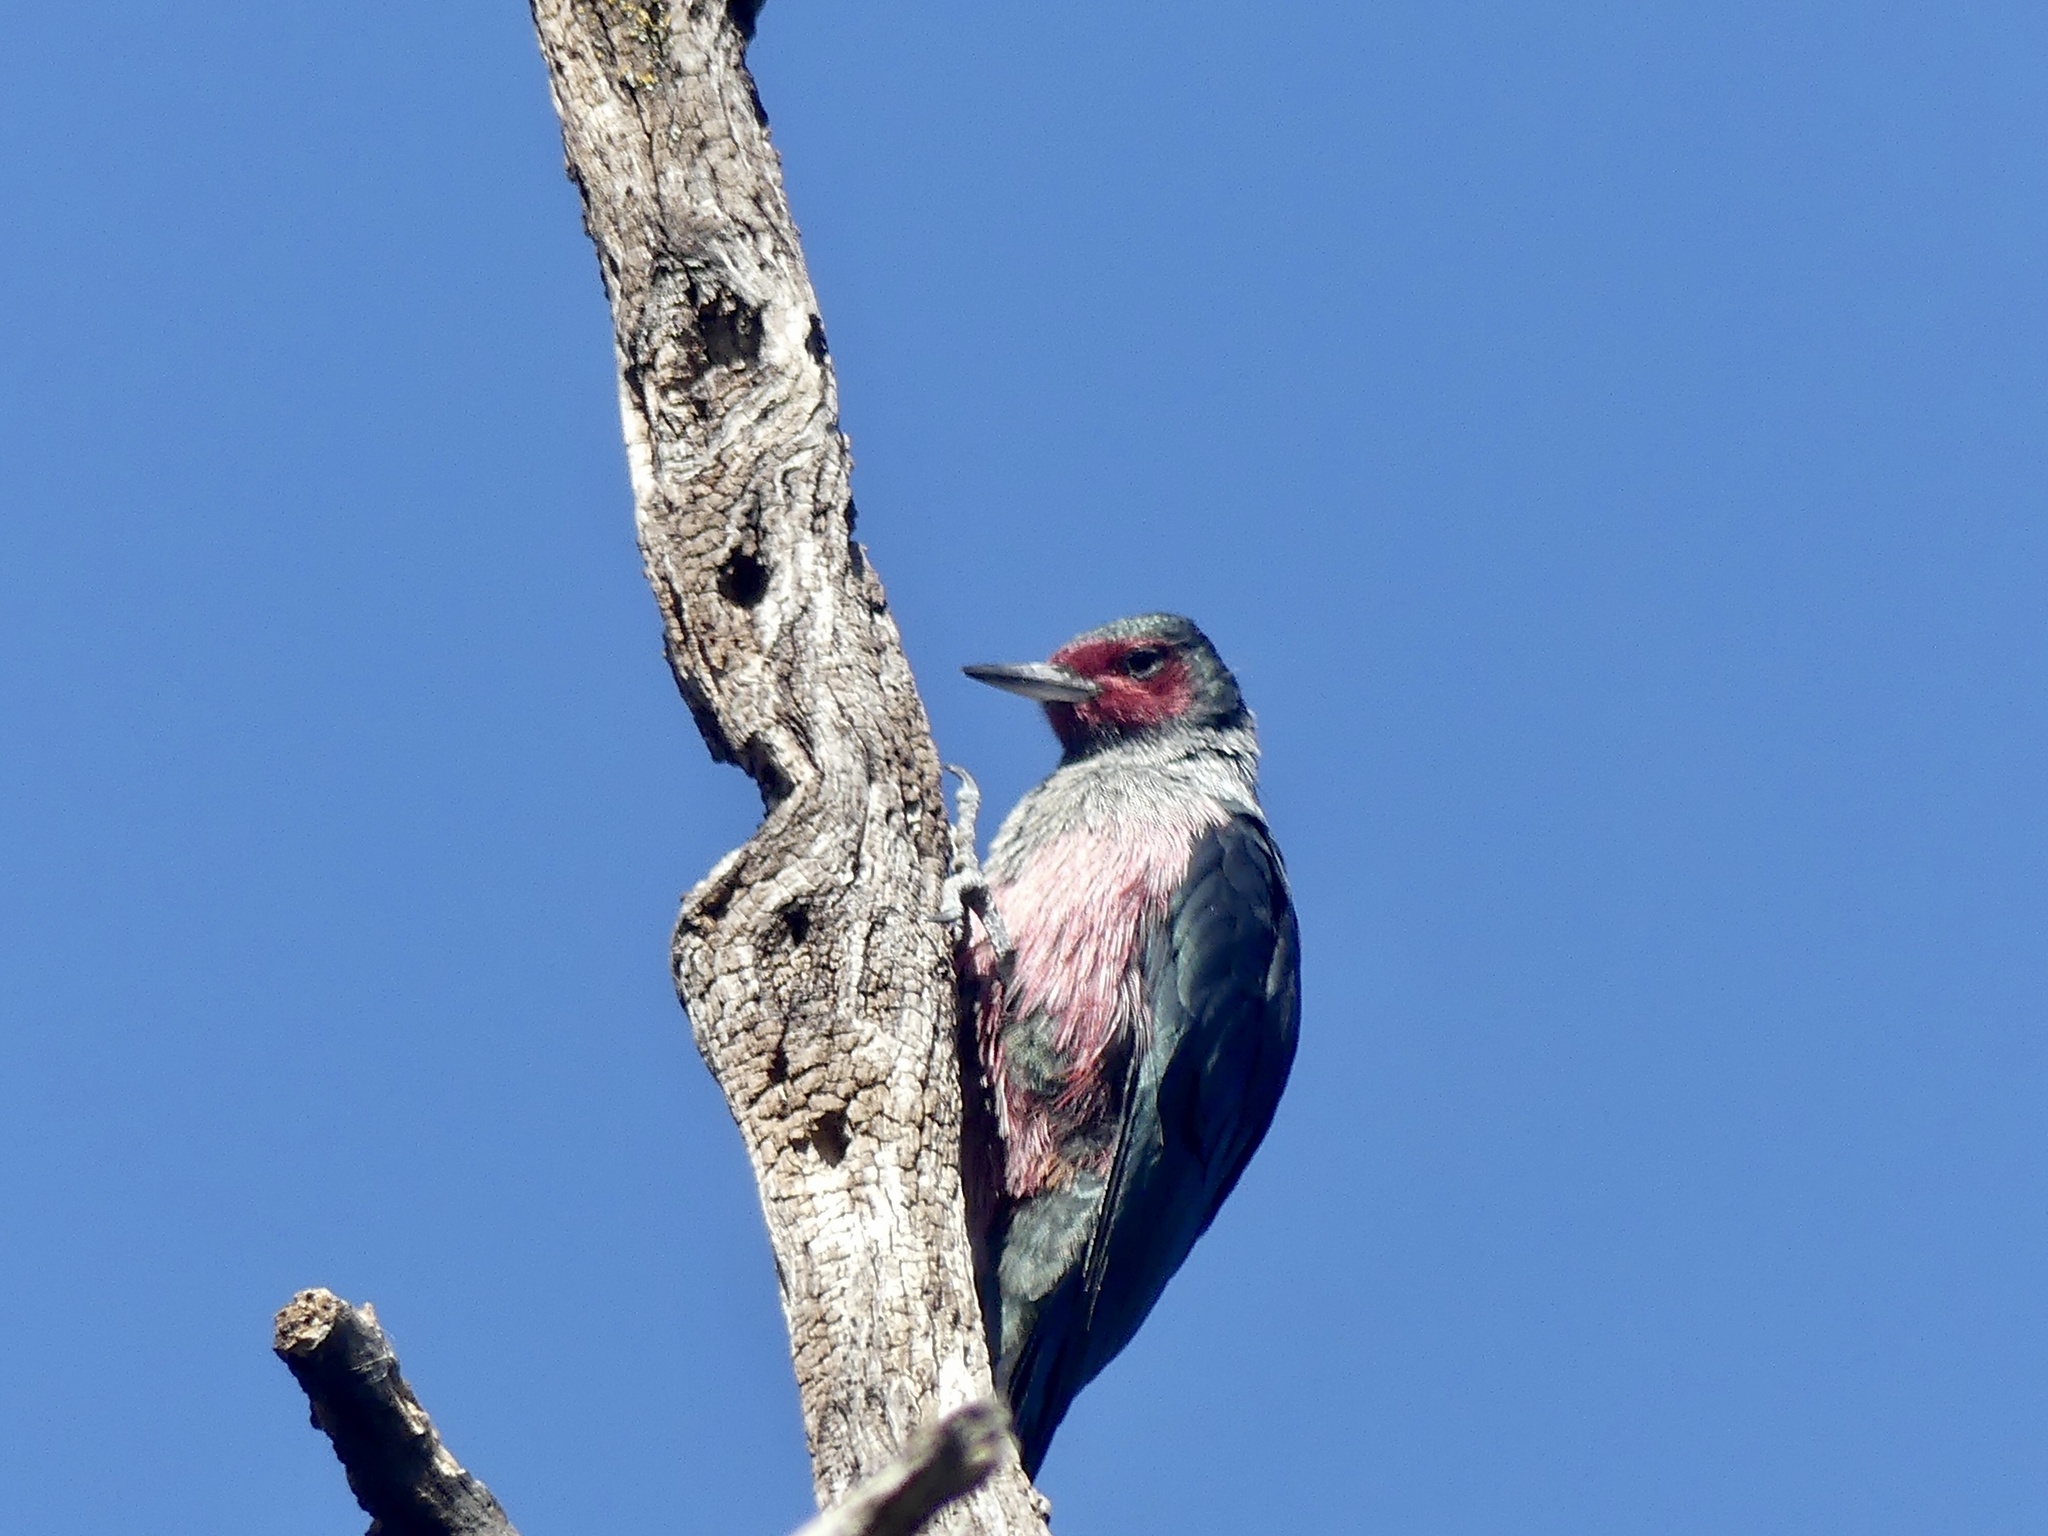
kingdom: Animalia
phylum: Chordata
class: Aves
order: Piciformes
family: Picidae
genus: Melanerpes
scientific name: Melanerpes lewis
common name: Lewis's woodpecker
